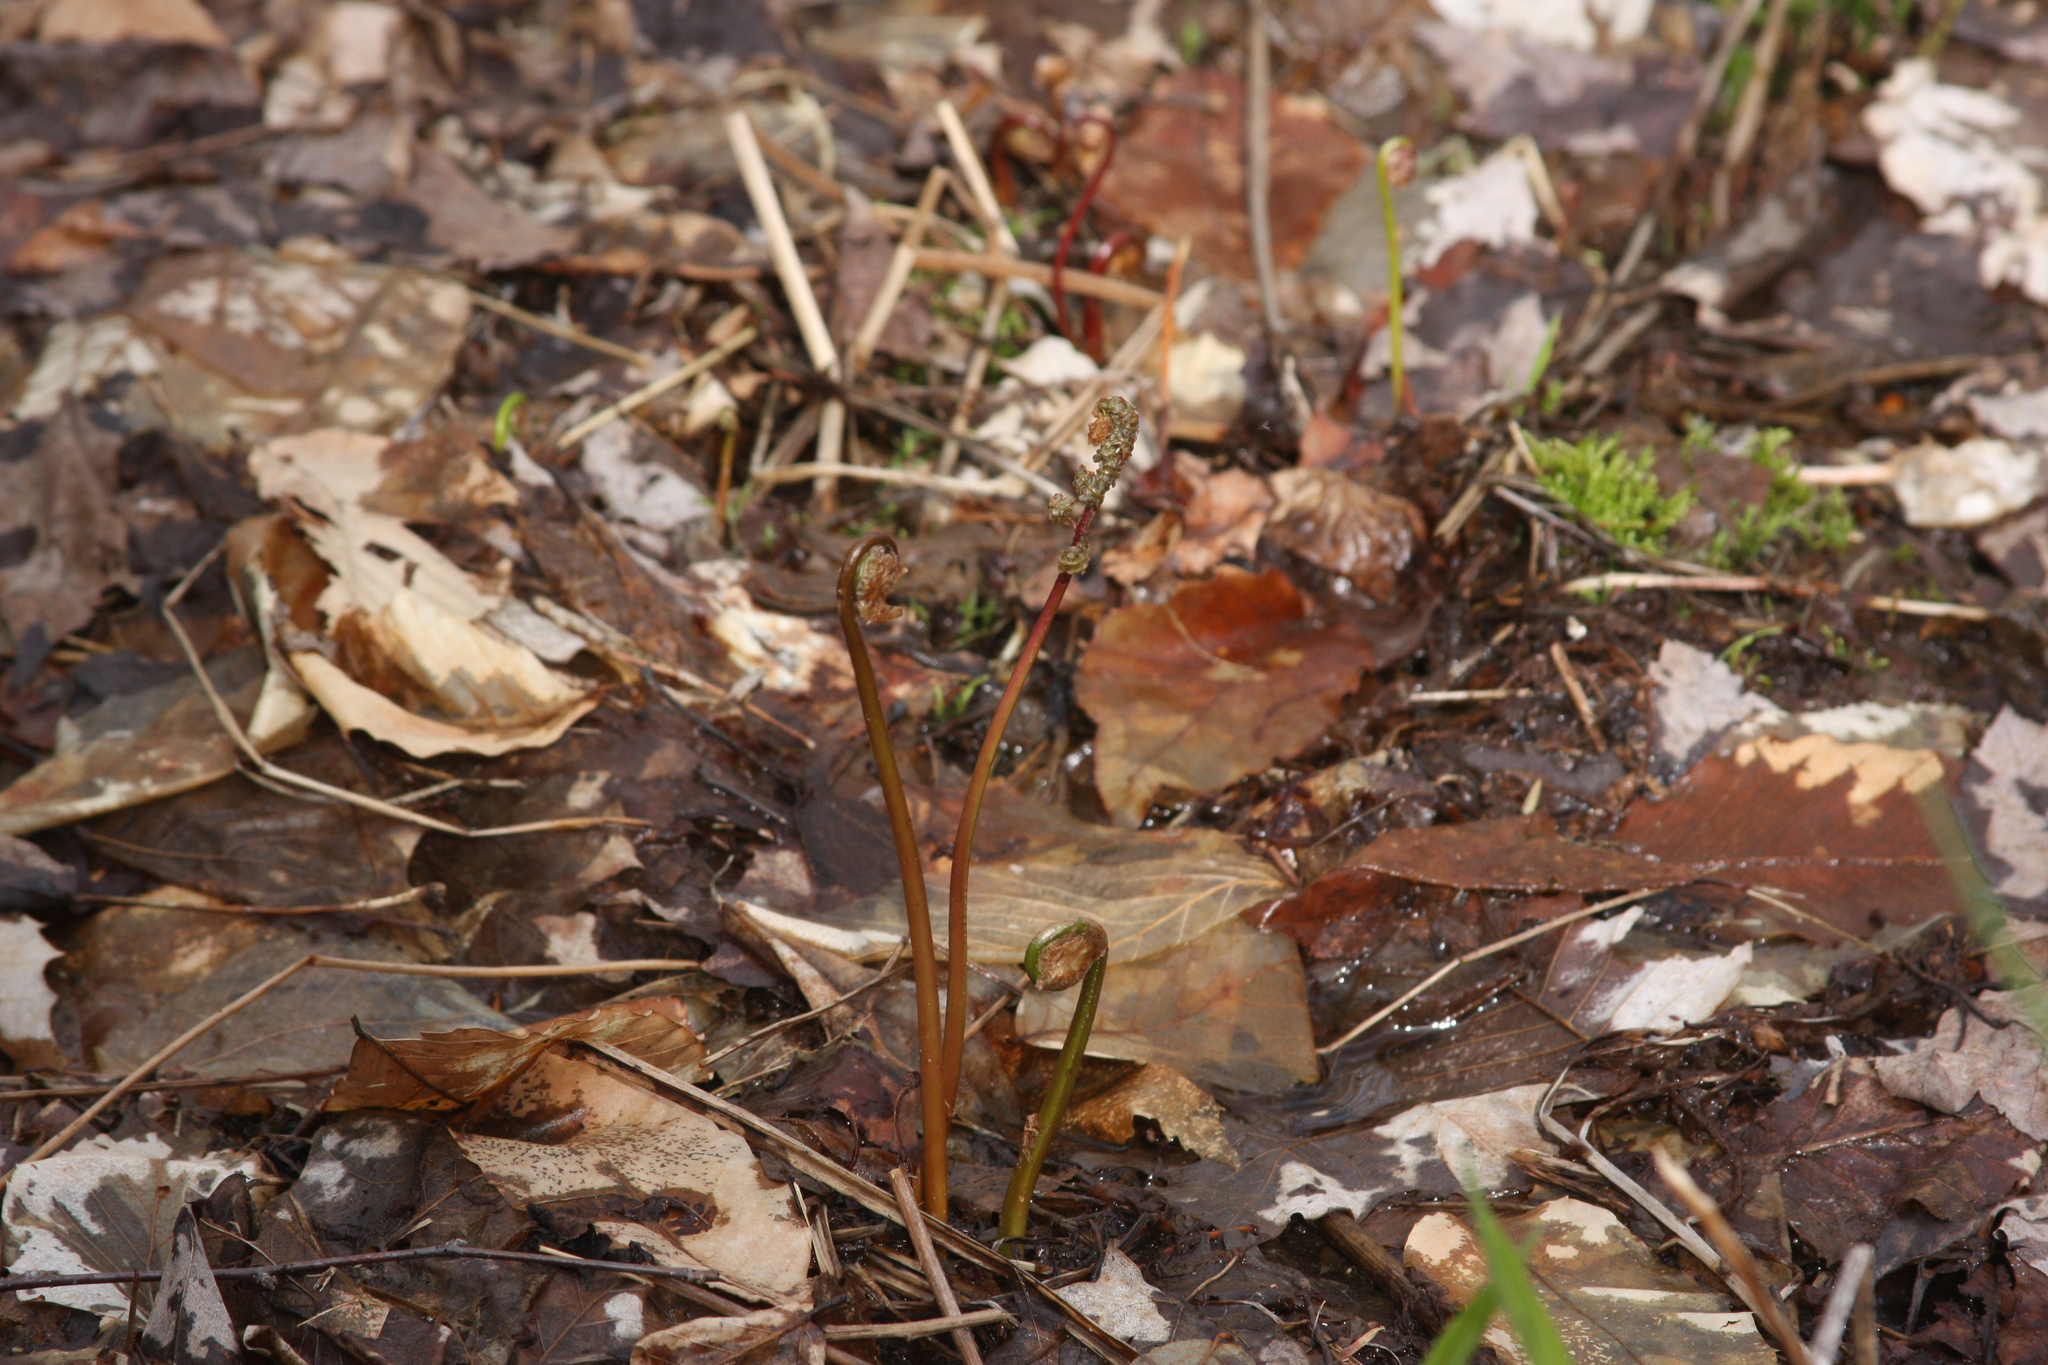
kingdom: Plantae
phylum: Tracheophyta
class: Polypodiopsida
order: Polypodiales
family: Onocleaceae
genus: Onoclea
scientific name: Onoclea sensibilis
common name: Sensitive fern
